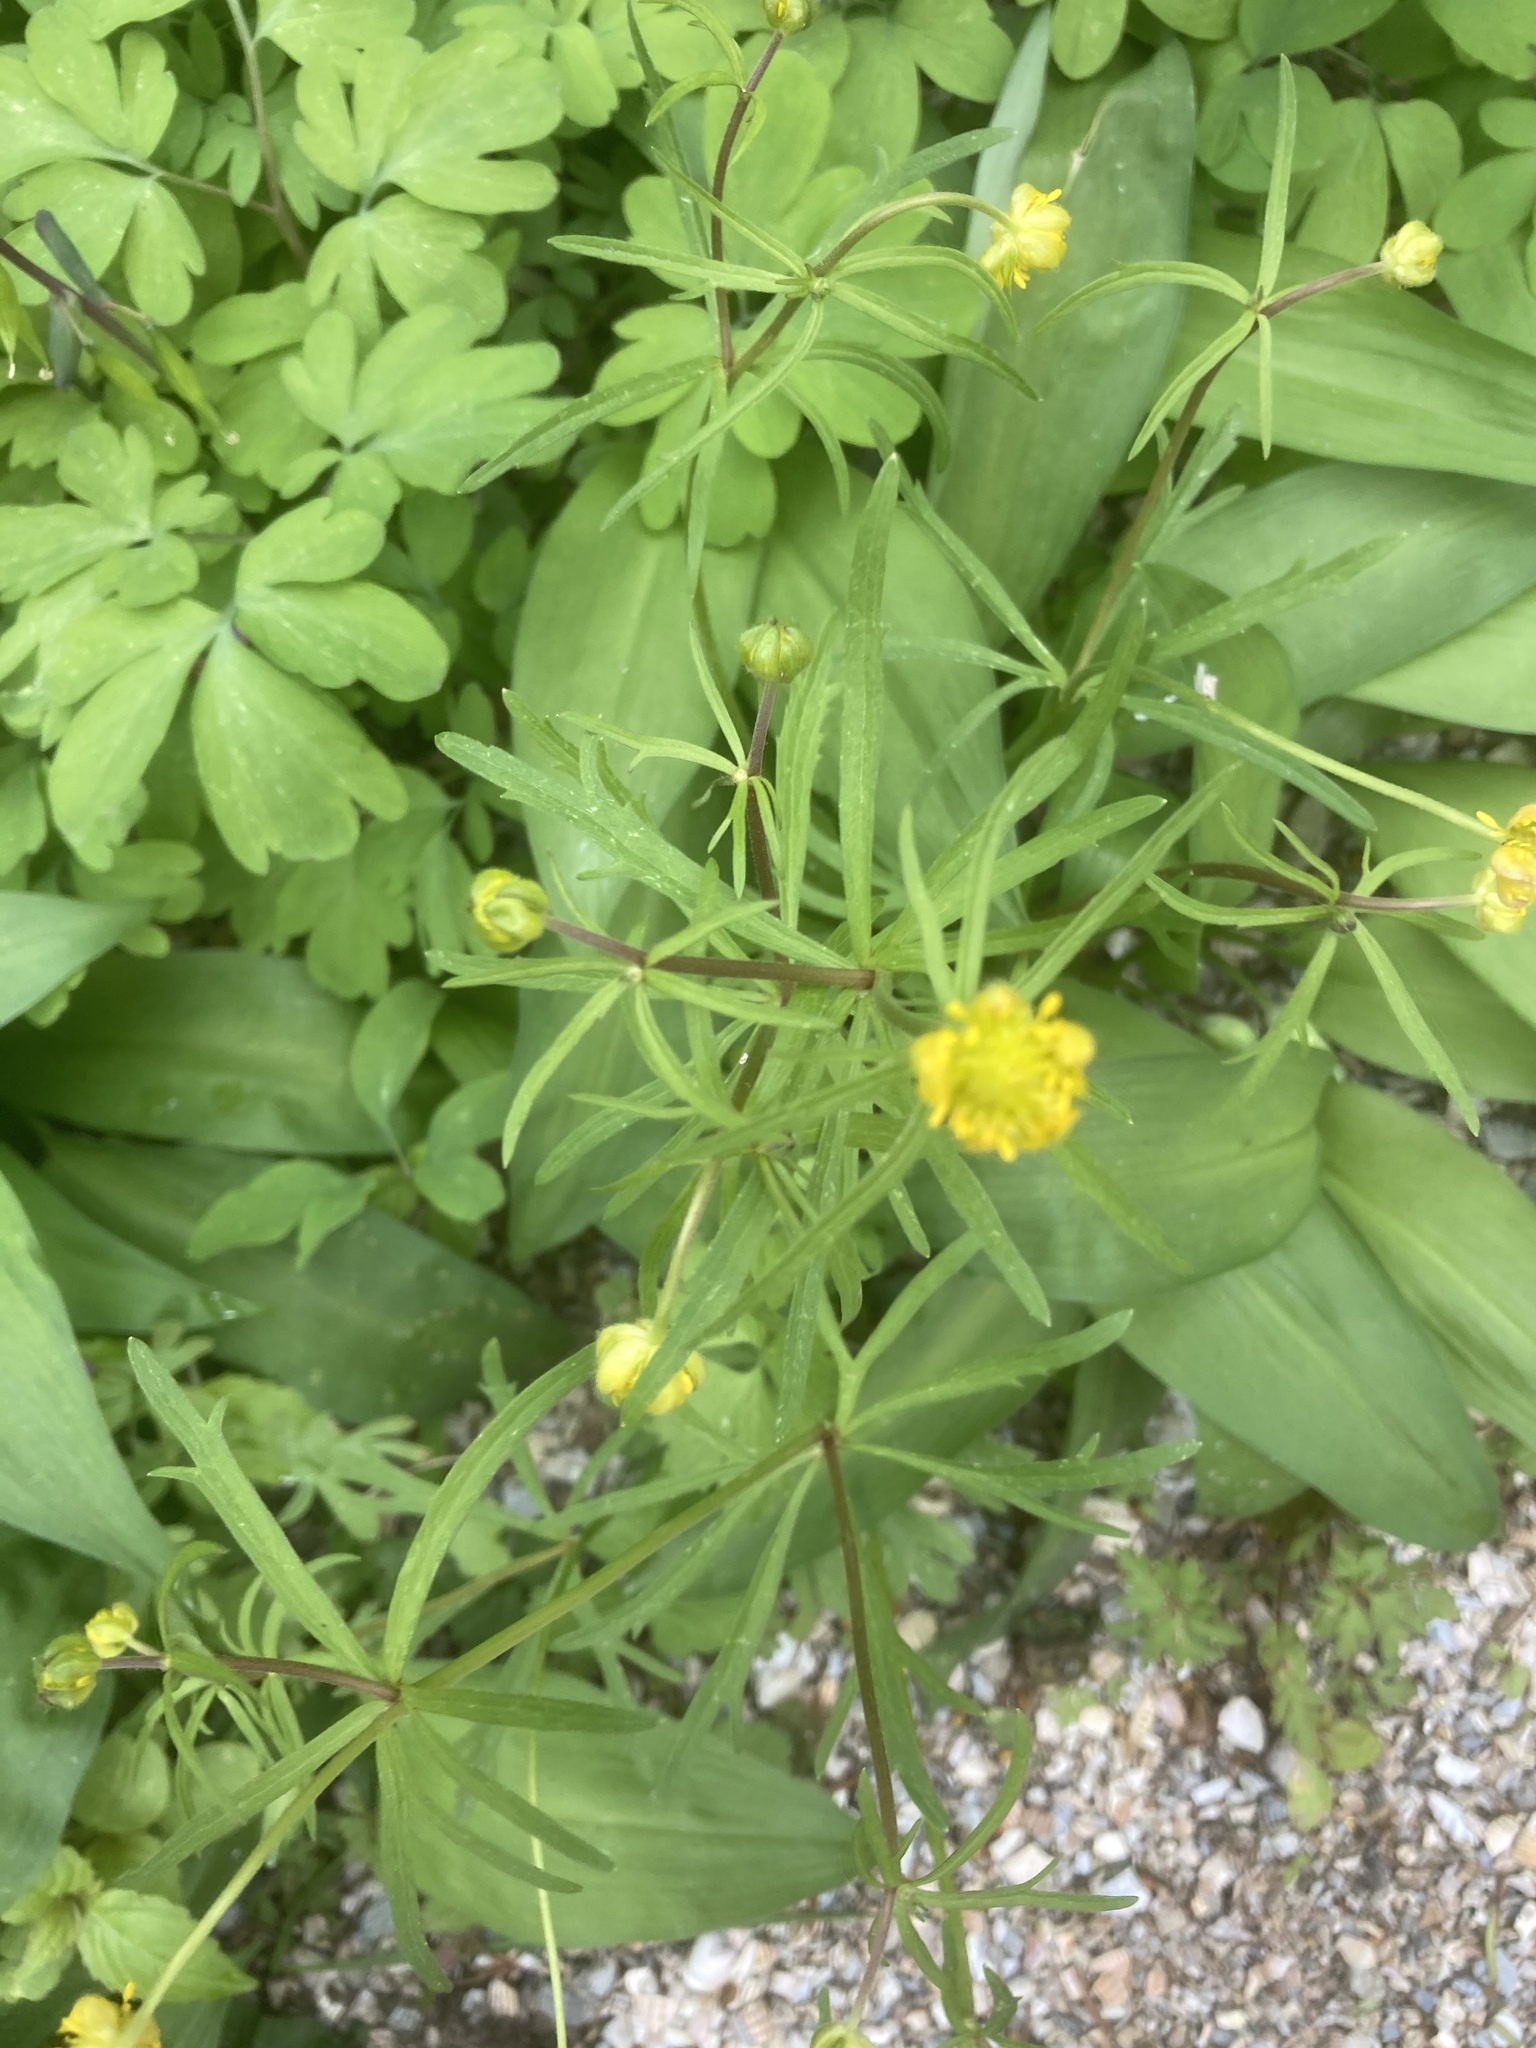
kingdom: Plantae
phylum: Tracheophyta
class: Magnoliopsida
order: Ranunculales
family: Ranunculaceae
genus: Ranunculus
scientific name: Ranunculus auricomus
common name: Goldilocks buttercup
